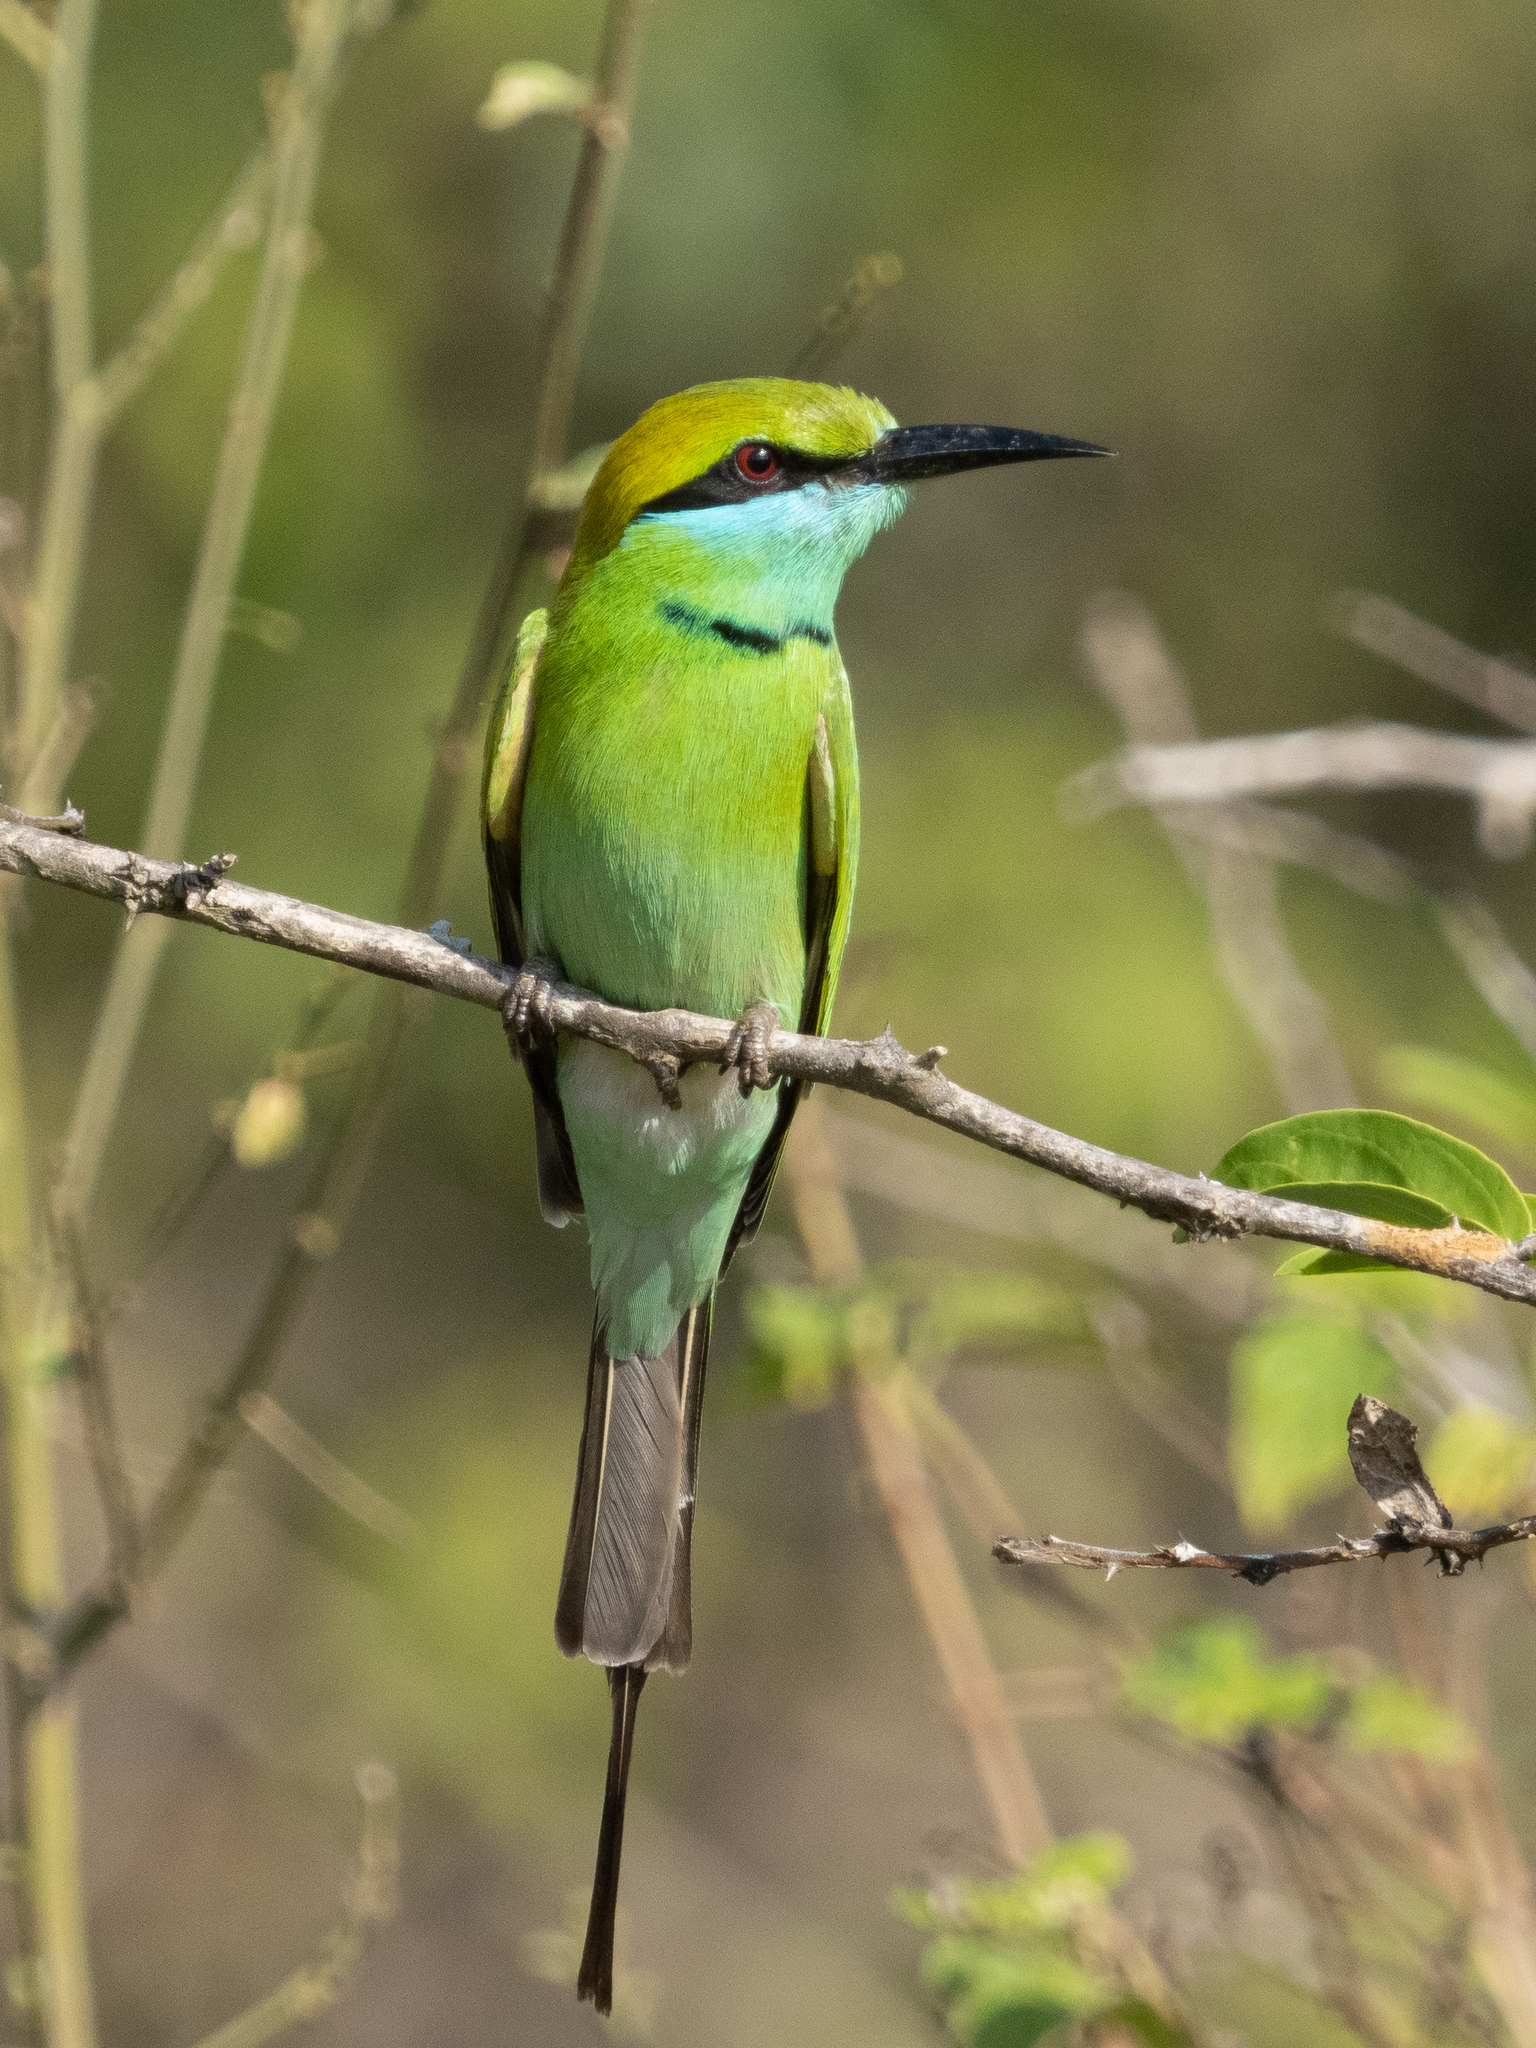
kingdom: Animalia
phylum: Chordata
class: Aves
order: Coraciiformes
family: Meropidae
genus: Merops
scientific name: Merops orientalis
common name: Green bee-eater
